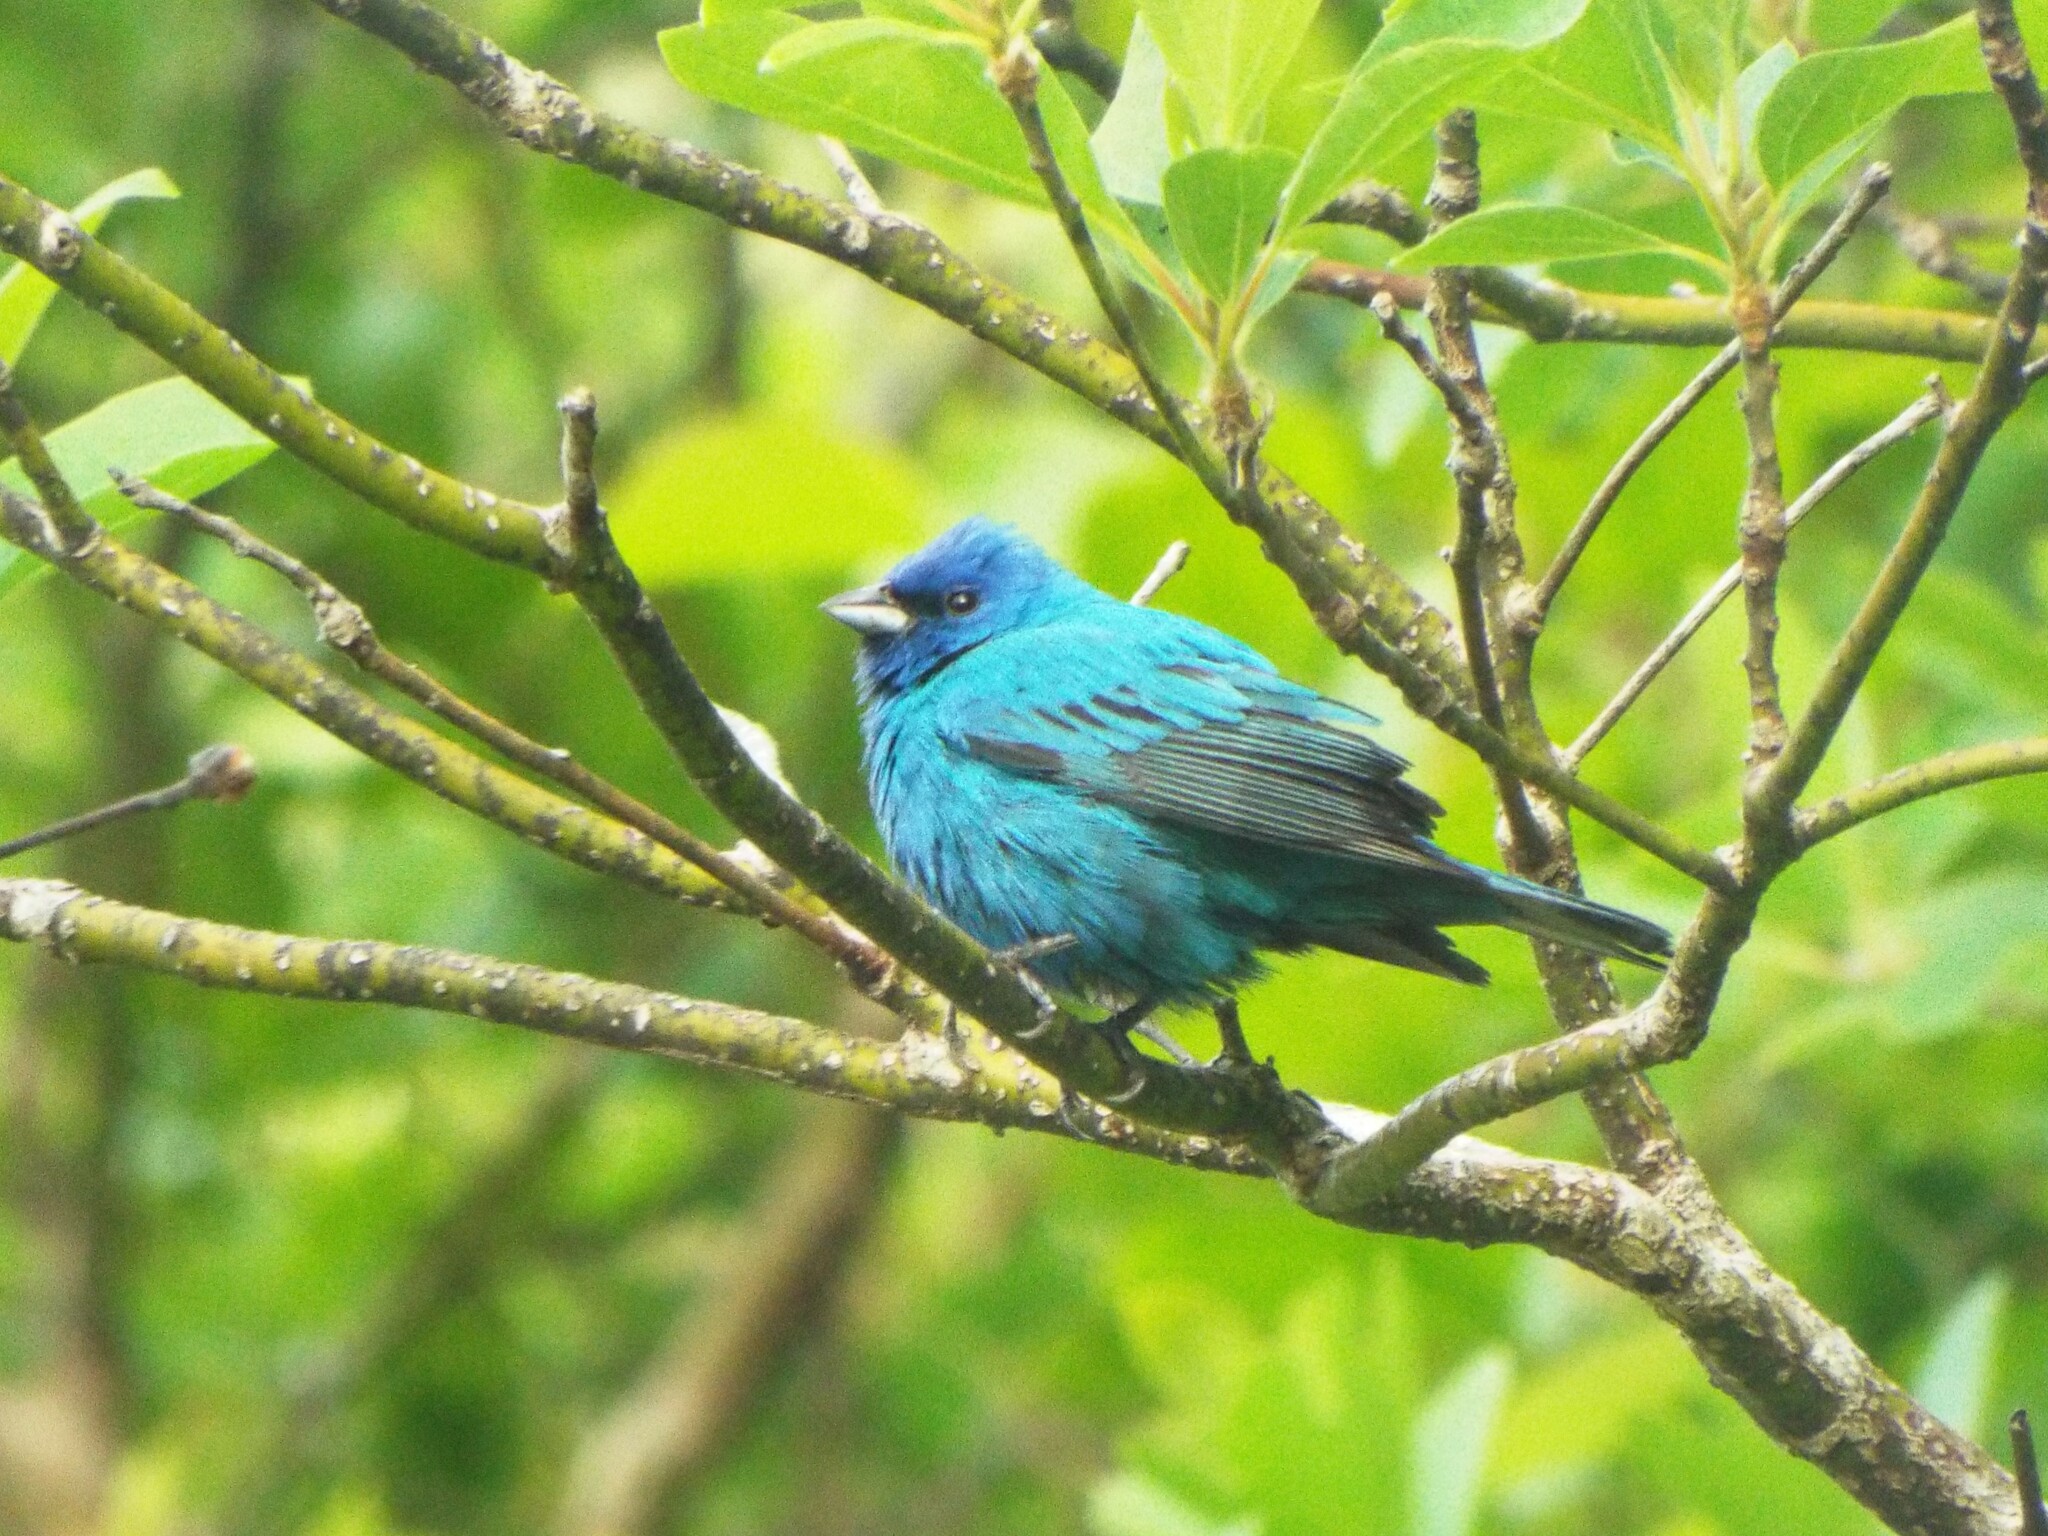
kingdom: Animalia
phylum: Chordata
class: Aves
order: Passeriformes
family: Cardinalidae
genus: Passerina
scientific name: Passerina cyanea
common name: Indigo bunting
